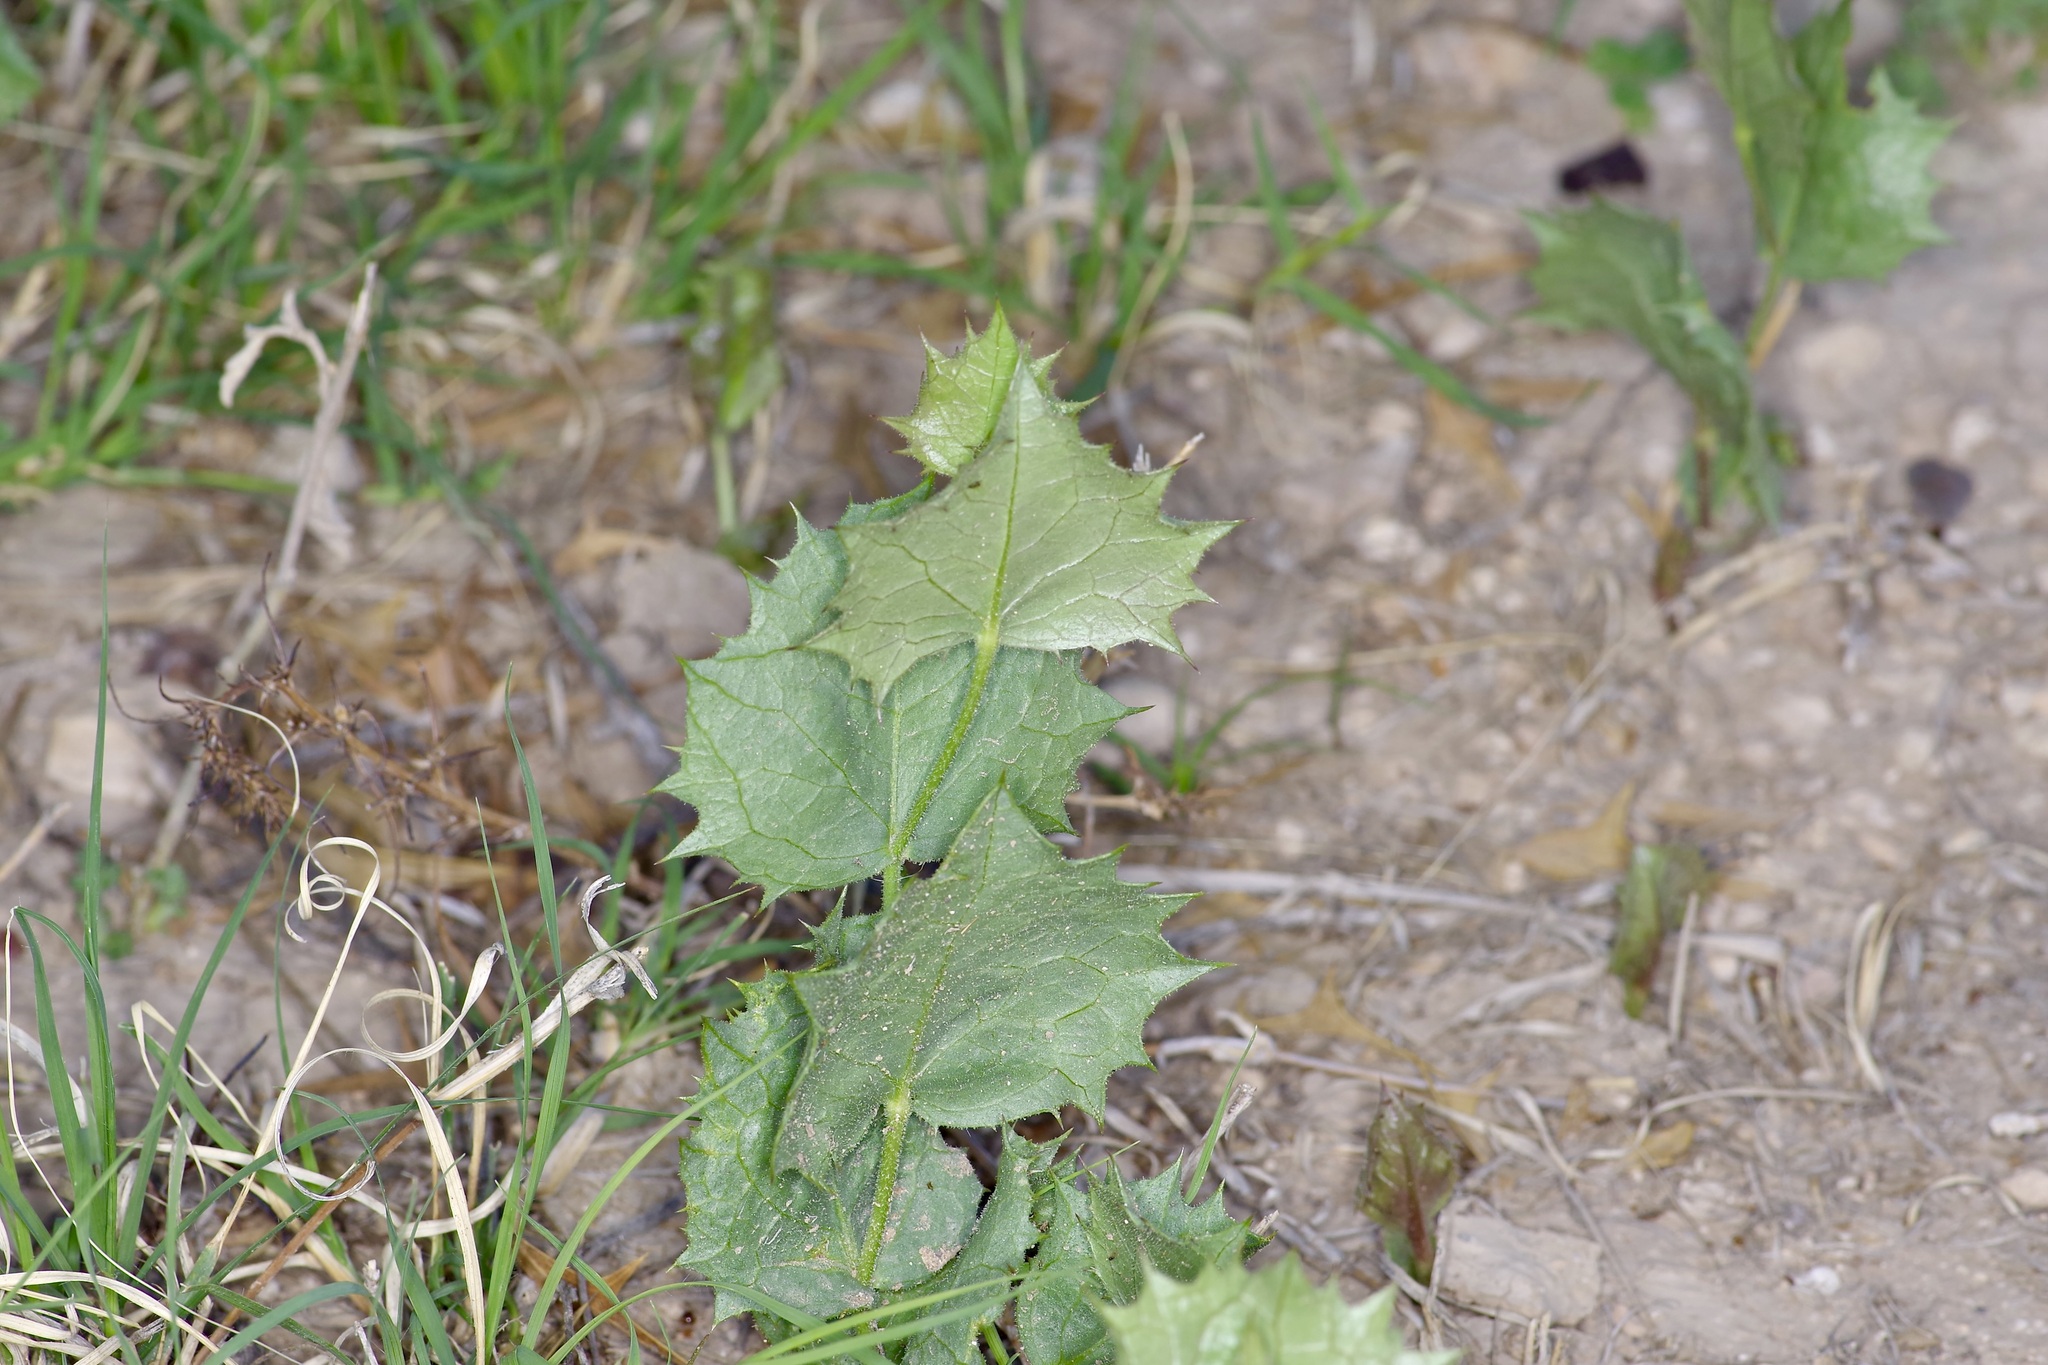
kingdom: Plantae
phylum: Tracheophyta
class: Magnoliopsida
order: Asterales
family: Asteraceae
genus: Acourtia
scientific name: Acourtia nana
